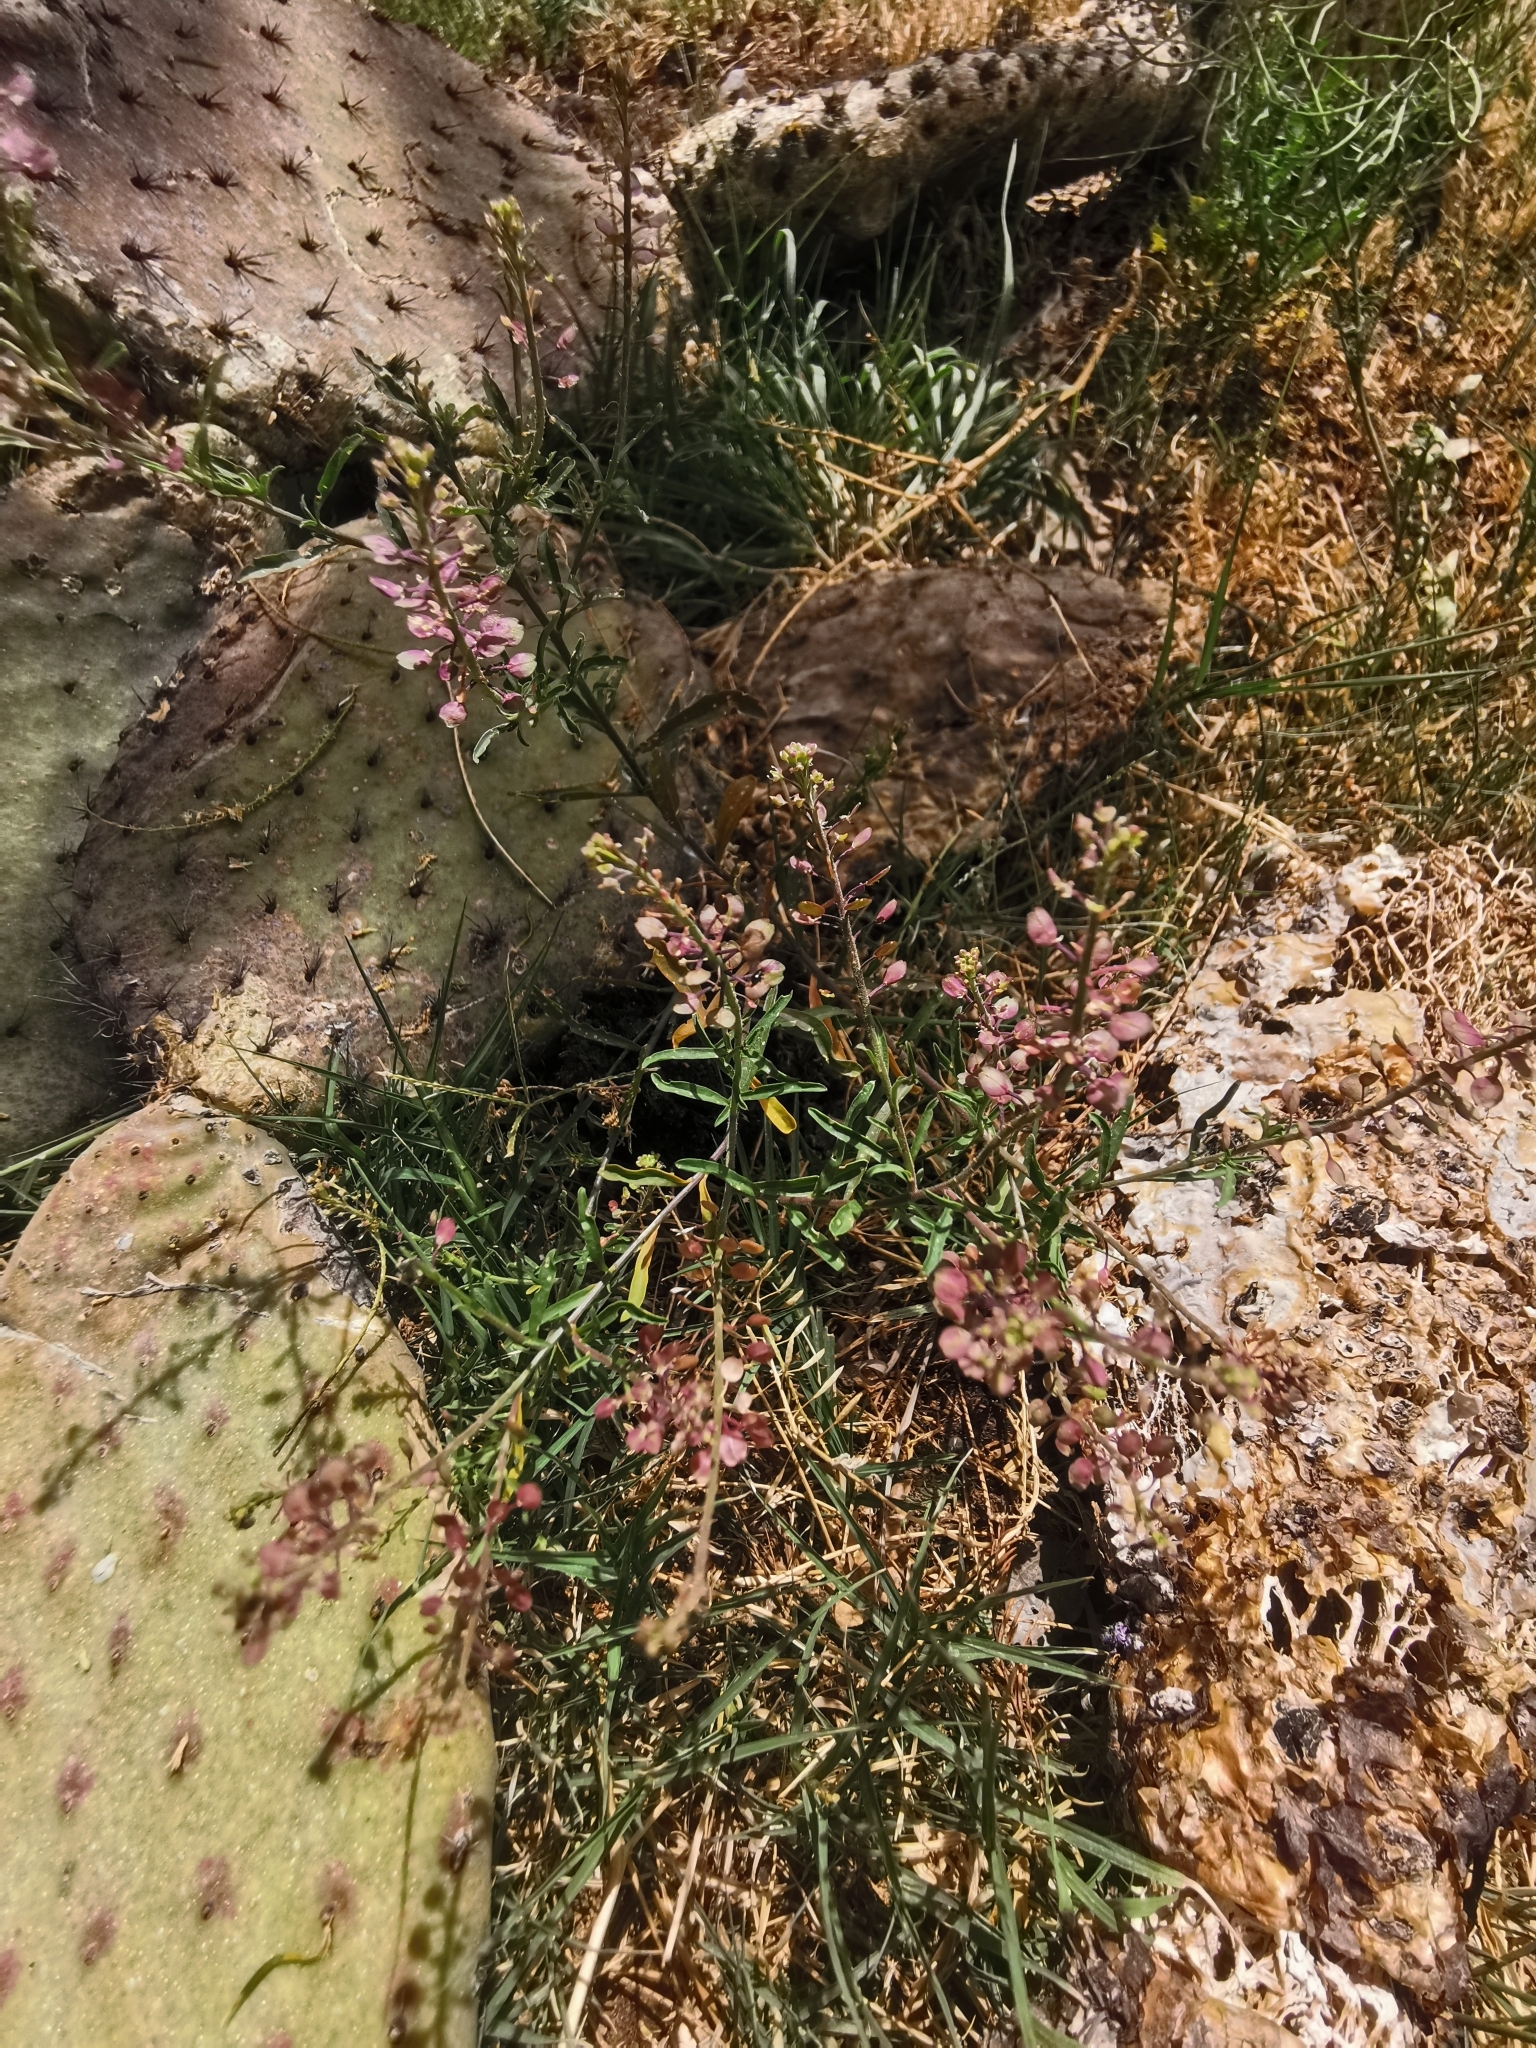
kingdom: Plantae
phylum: Tracheophyta
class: Magnoliopsida
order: Brassicales
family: Brassicaceae
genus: Lepidium
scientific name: Lepidium virginicum
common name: Least pepperwort
